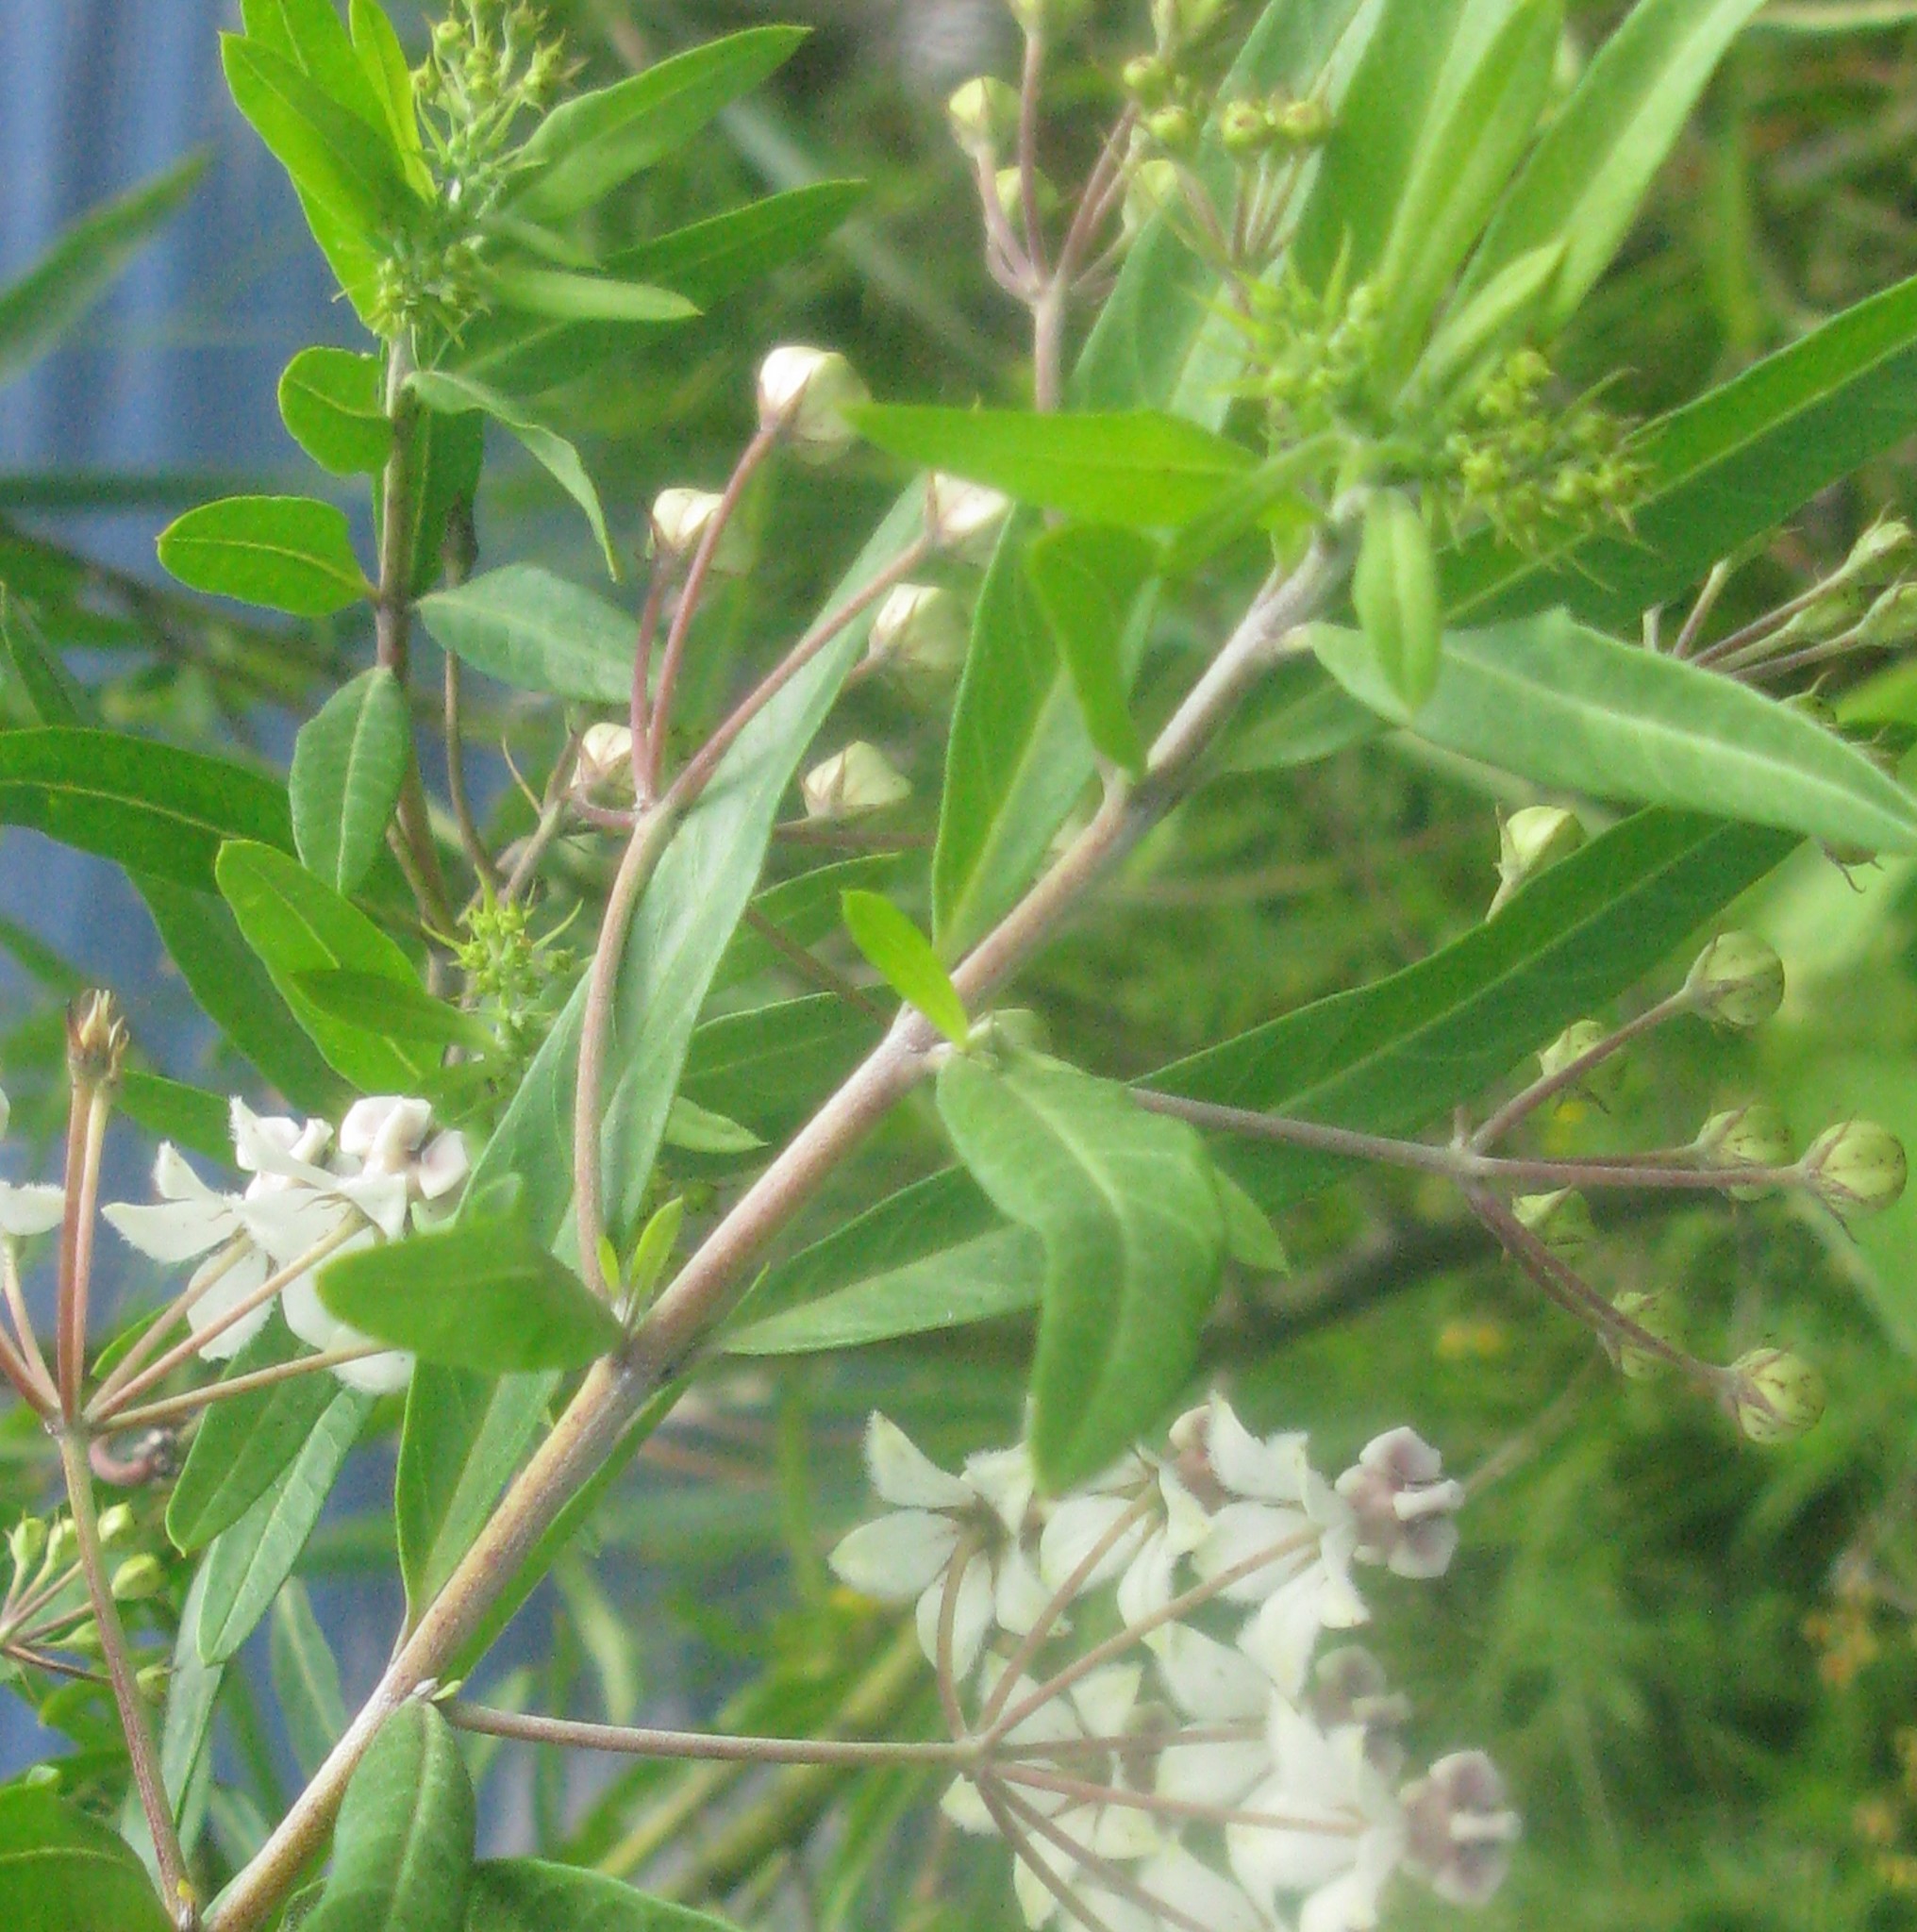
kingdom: Plantae
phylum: Tracheophyta
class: Magnoliopsida
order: Gentianales
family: Apocynaceae
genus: Gomphocarpus
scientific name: Gomphocarpus physocarpus
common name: Balloon cotton bush
